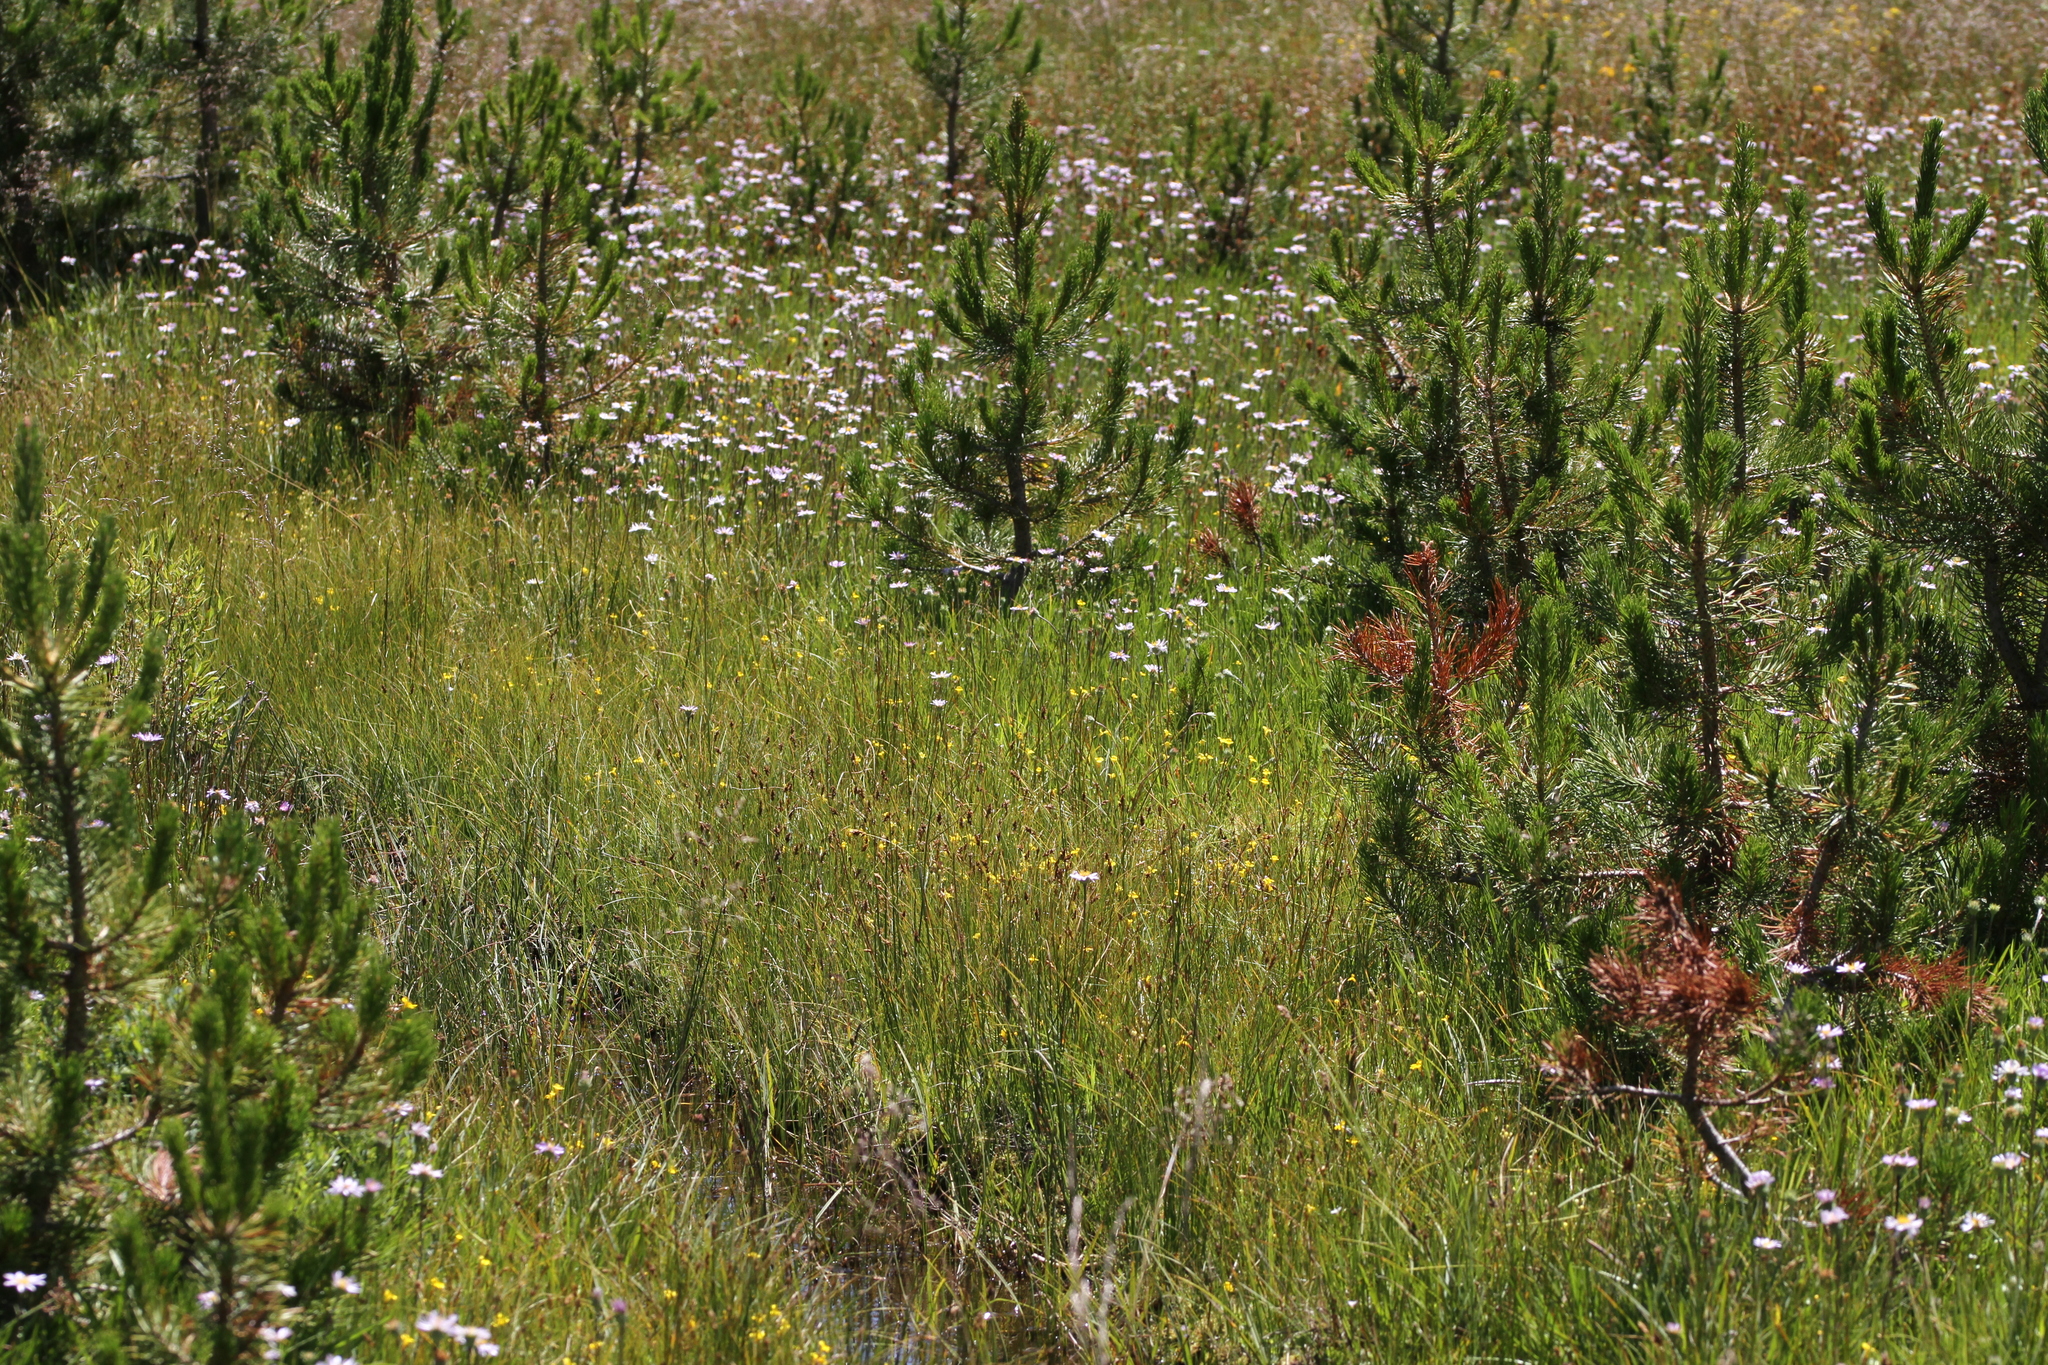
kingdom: Plantae
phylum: Tracheophyta
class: Liliopsida
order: Asparagales
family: Orchidaceae
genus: Spiranthes
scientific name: Spiranthes stellata
